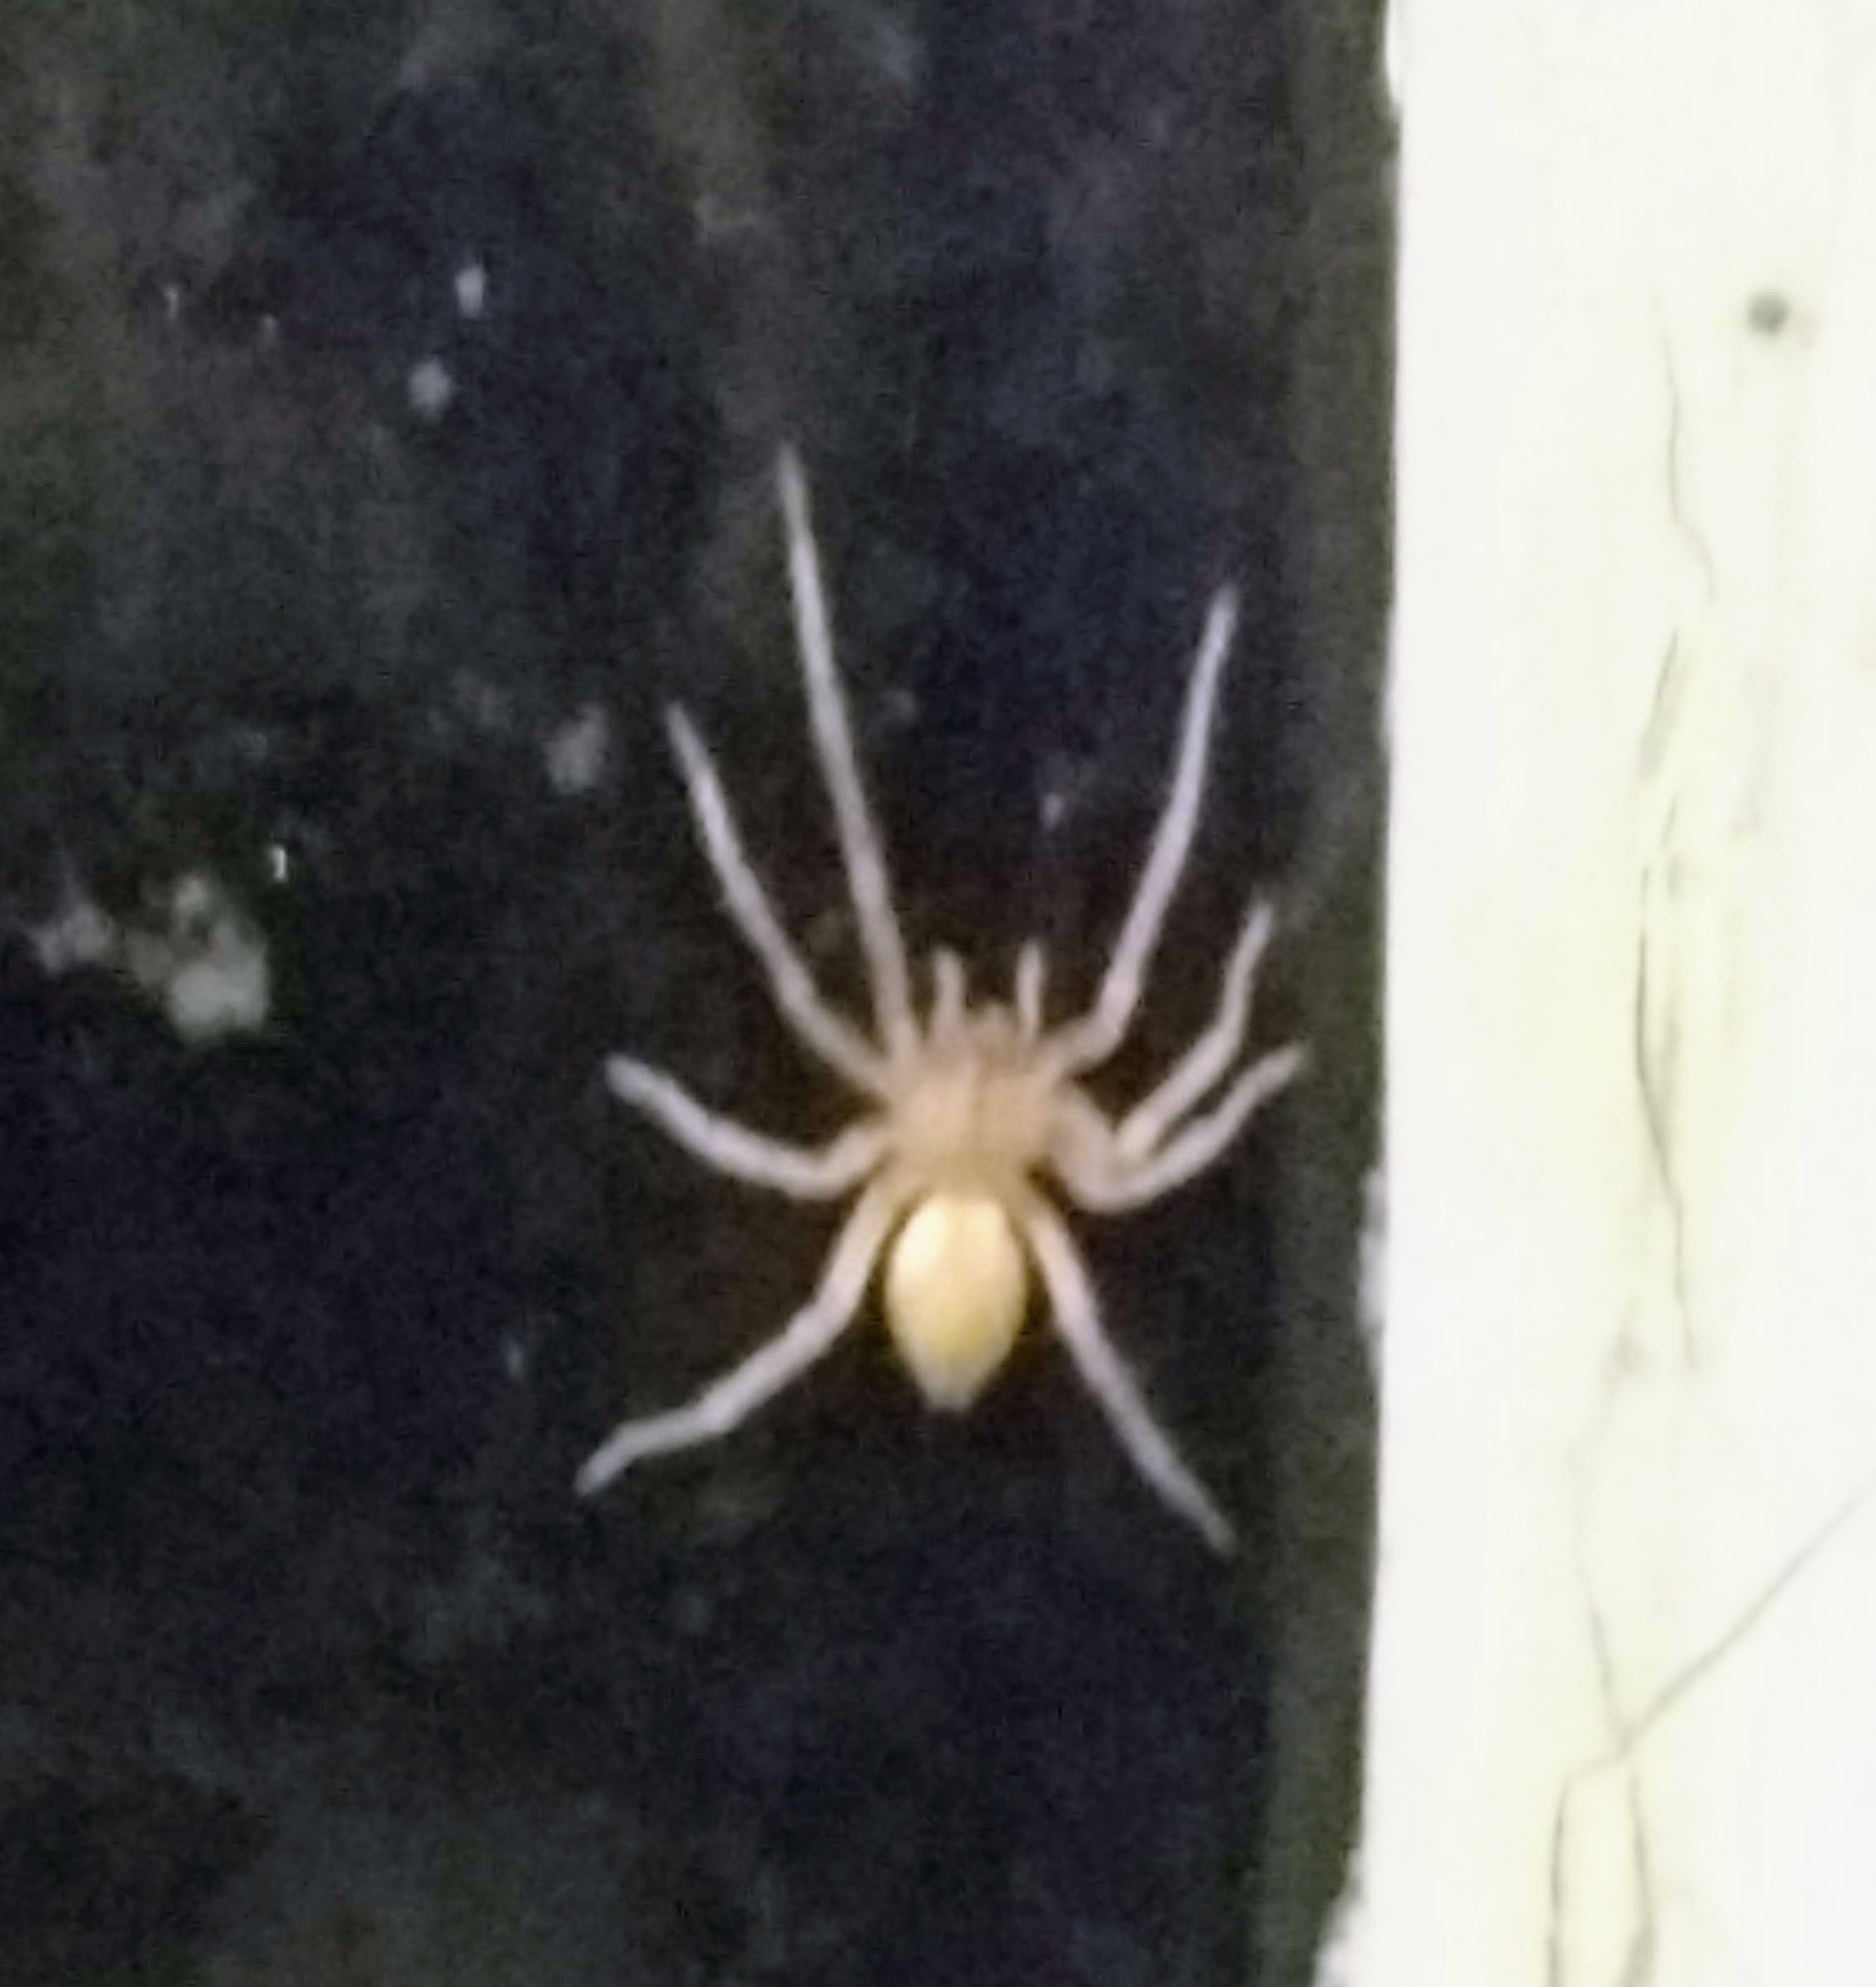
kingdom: Animalia
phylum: Arthropoda
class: Arachnida
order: Araneae
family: Cheiracanthiidae
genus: Cheiracanthium
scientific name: Cheiracanthium mildei
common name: Northern yellow sac spider
